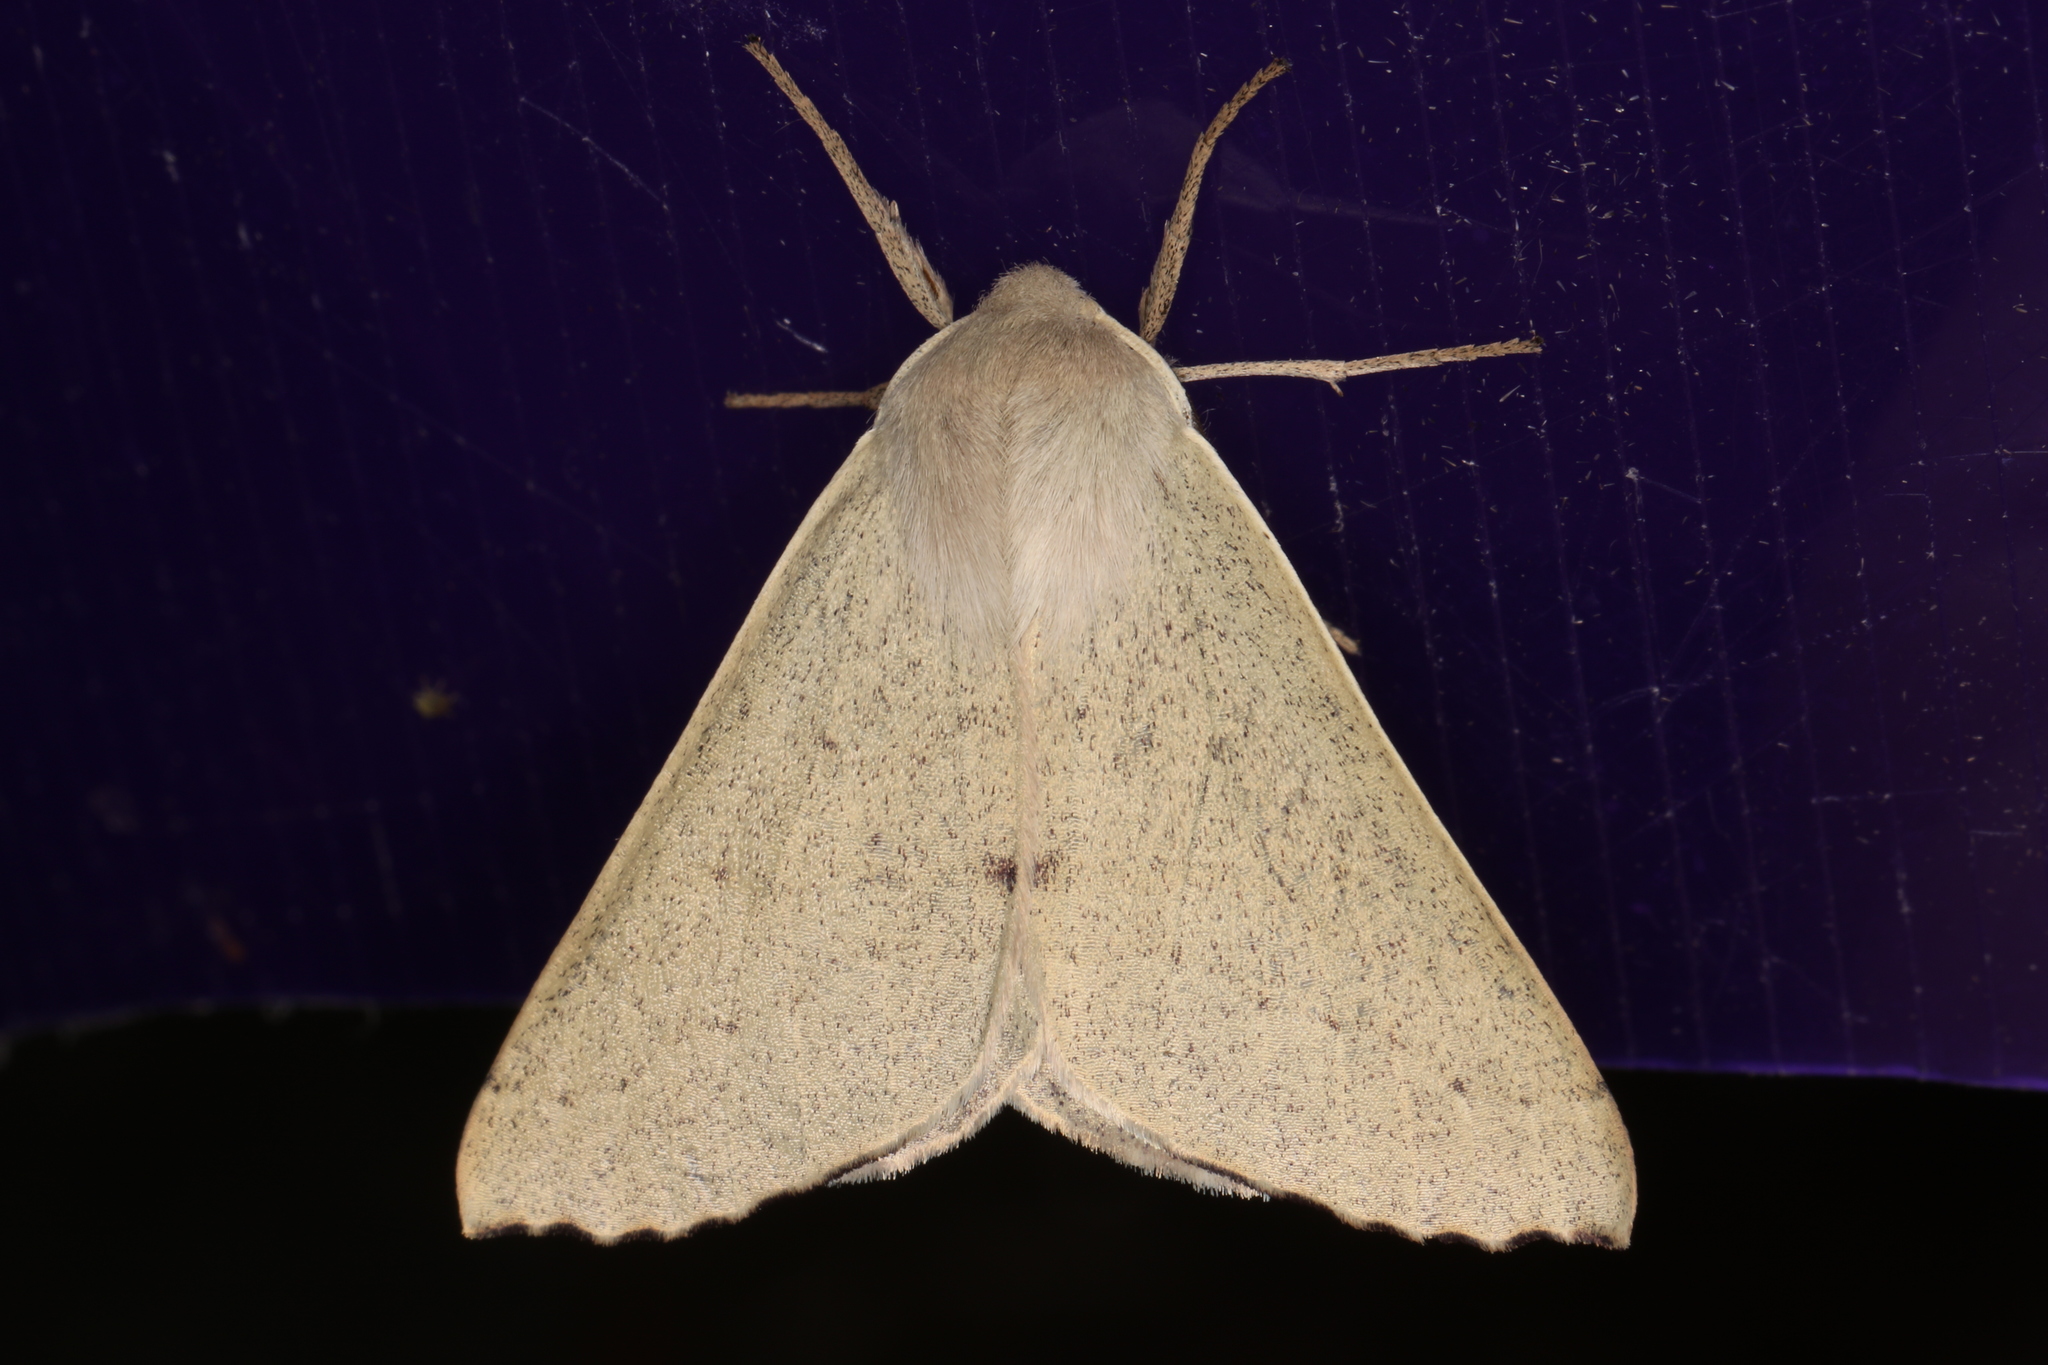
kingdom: Animalia
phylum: Arthropoda
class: Insecta
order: Lepidoptera
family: Geometridae
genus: Arhodia
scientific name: Arhodia lasiocamparia
